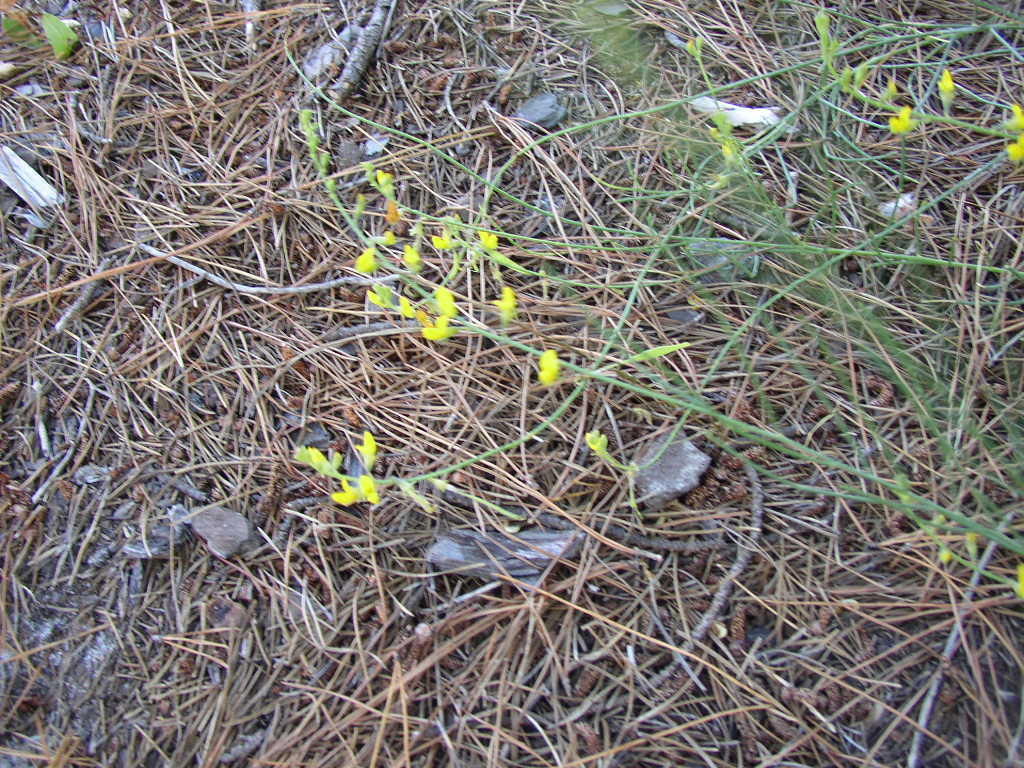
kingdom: Plantae
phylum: Tracheophyta
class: Magnoliopsida
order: Fabales
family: Fabaceae
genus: Lebeckia
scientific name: Lebeckia contaminata
